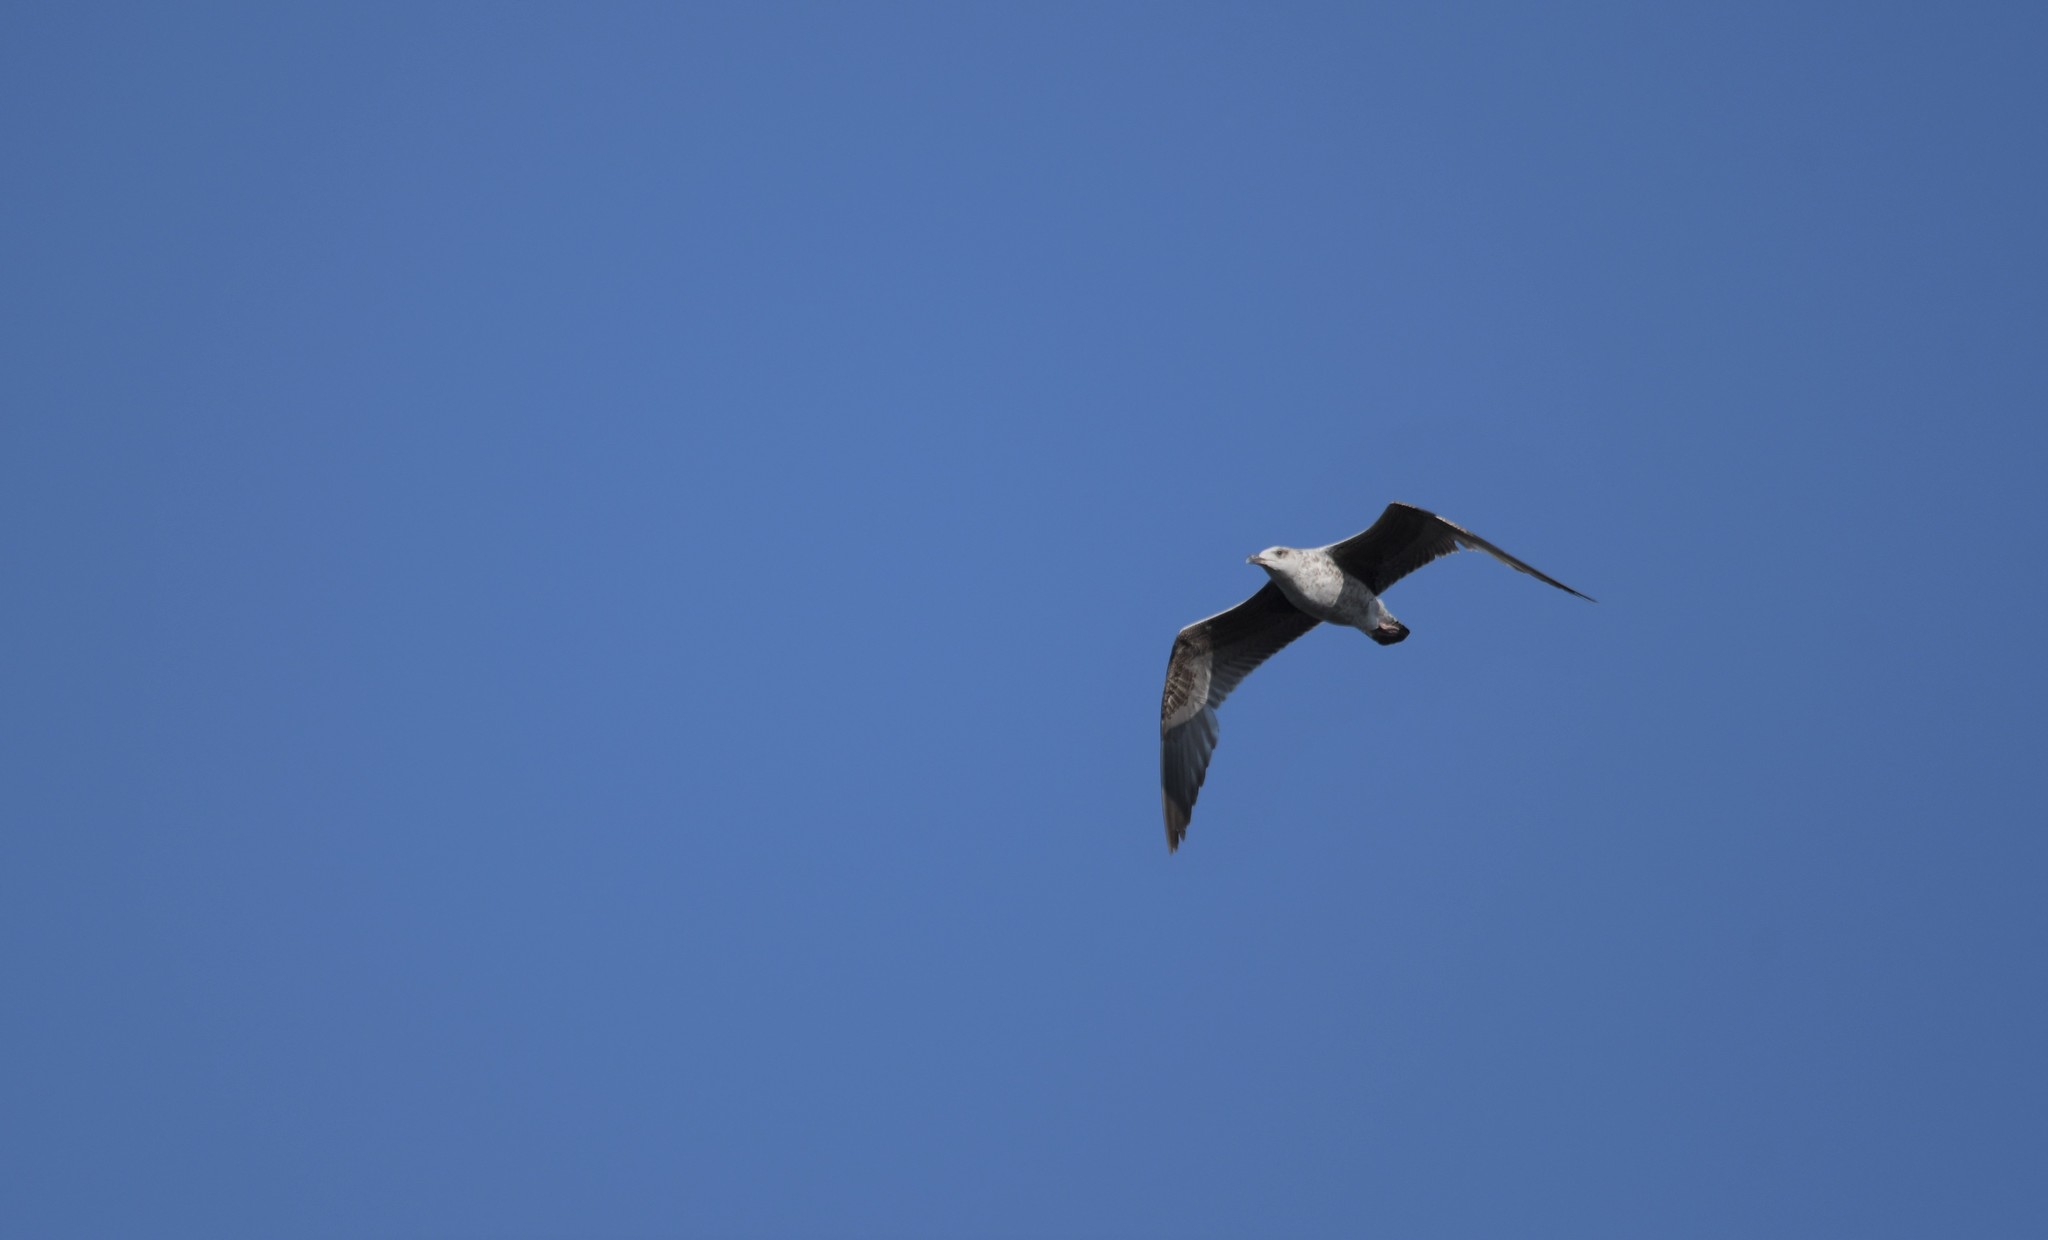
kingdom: Animalia
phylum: Chordata
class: Aves
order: Charadriiformes
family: Laridae
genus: Larus
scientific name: Larus
